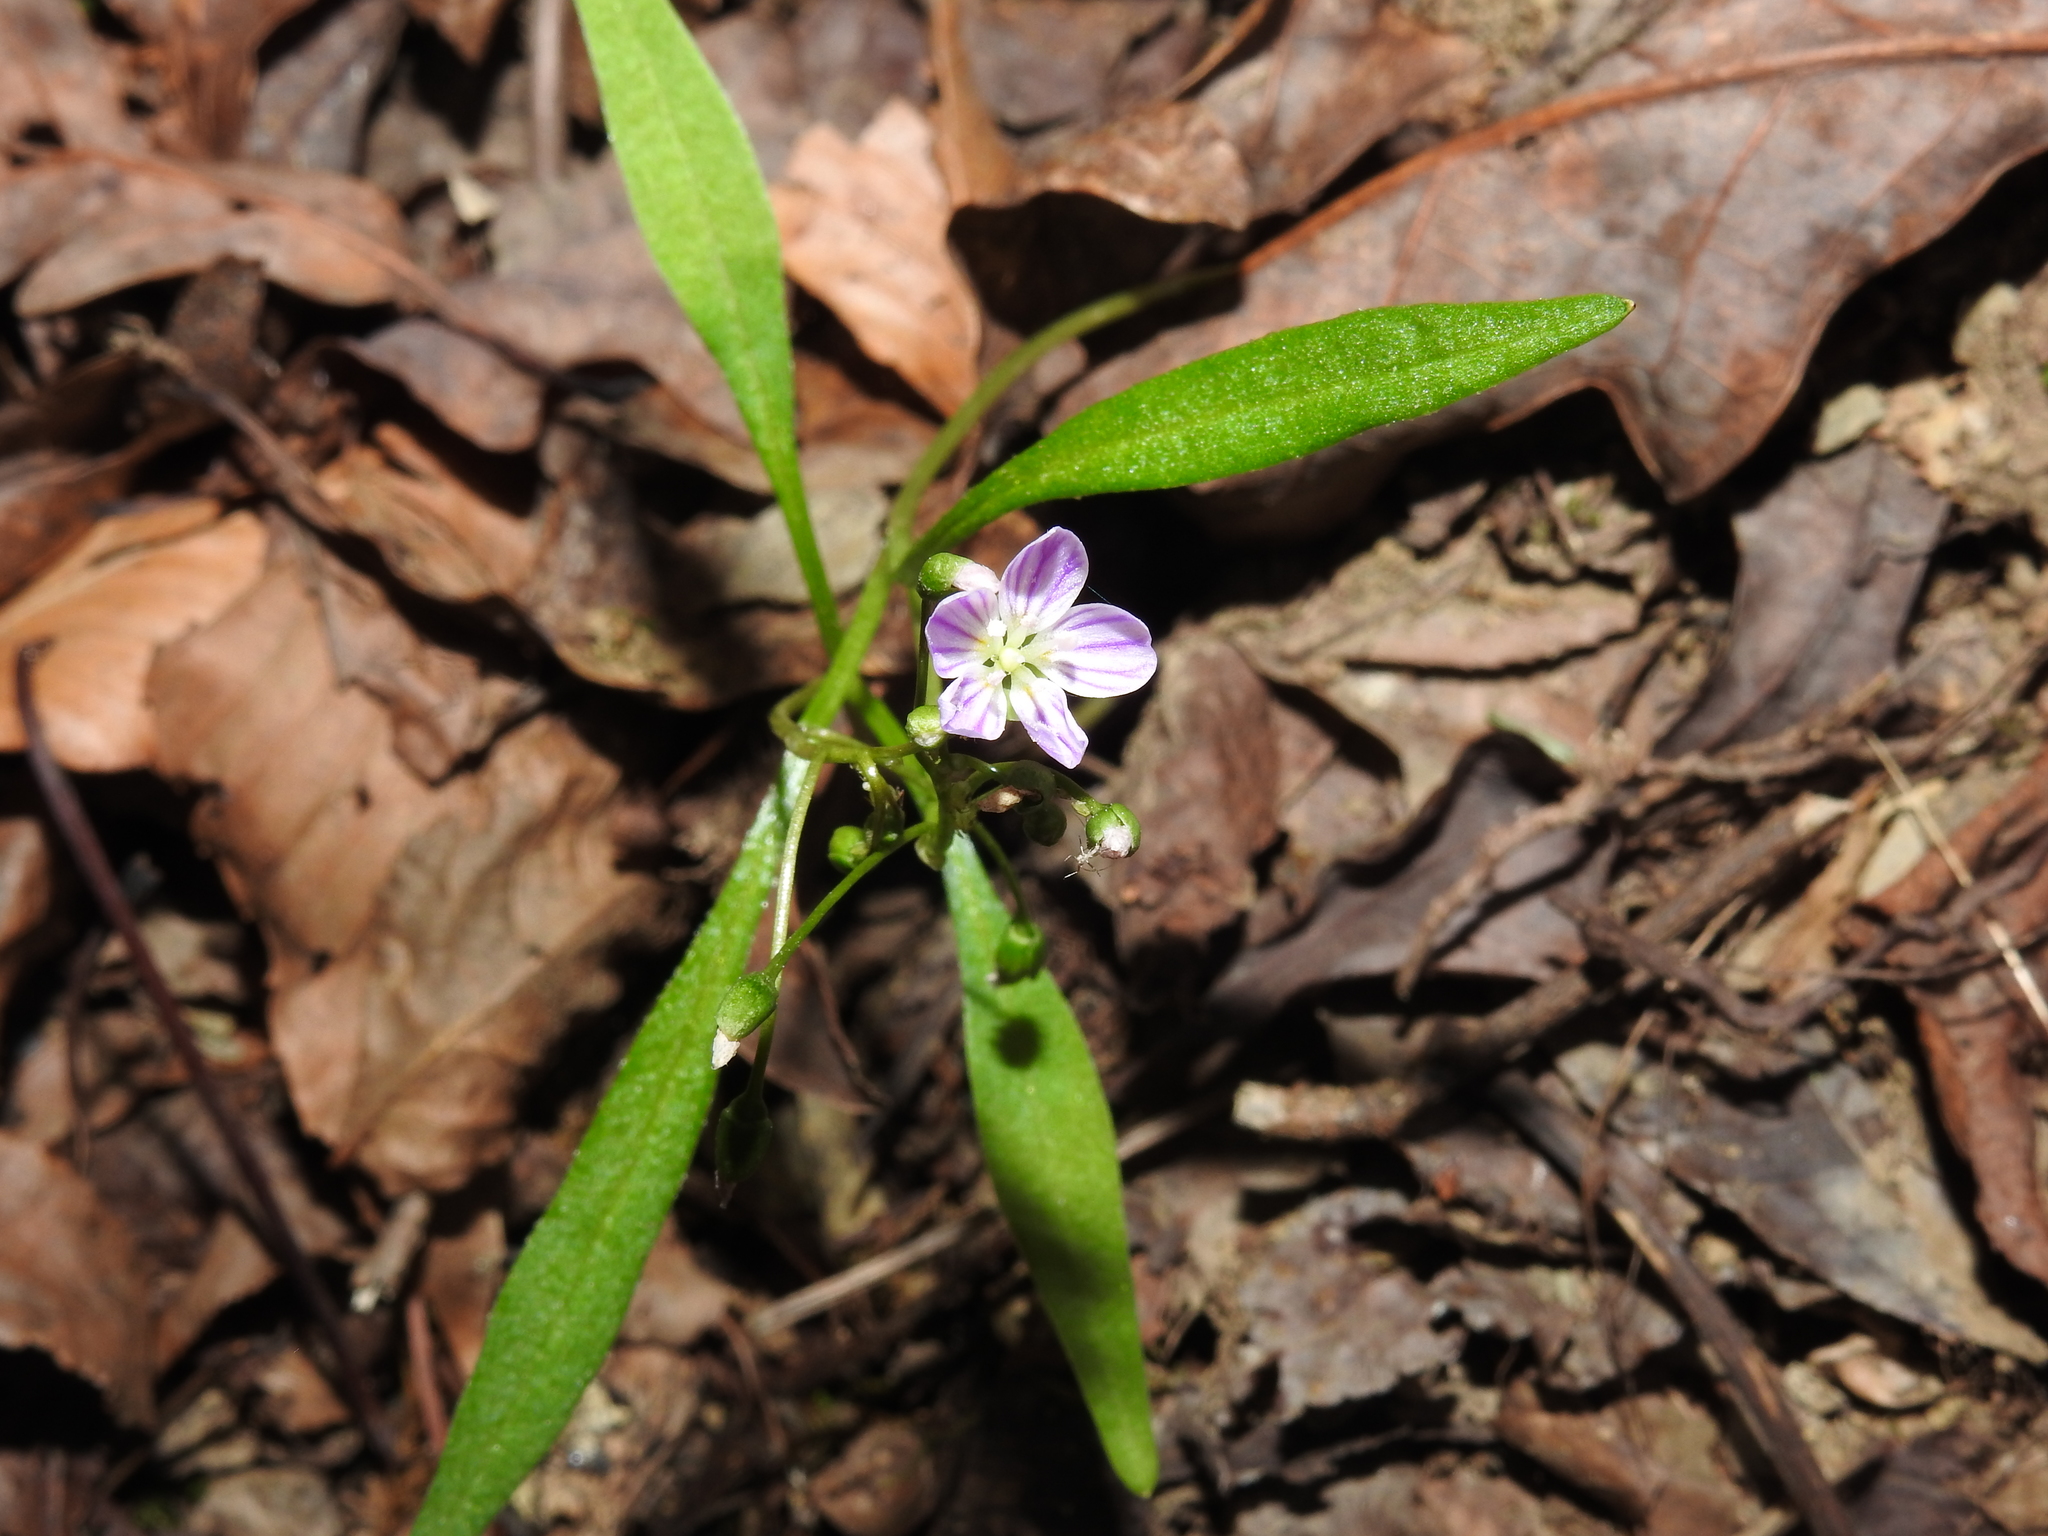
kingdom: Plantae
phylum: Tracheophyta
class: Magnoliopsida
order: Caryophyllales
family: Montiaceae
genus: Claytonia
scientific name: Claytonia caroliniana
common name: Carolina spring beauty
